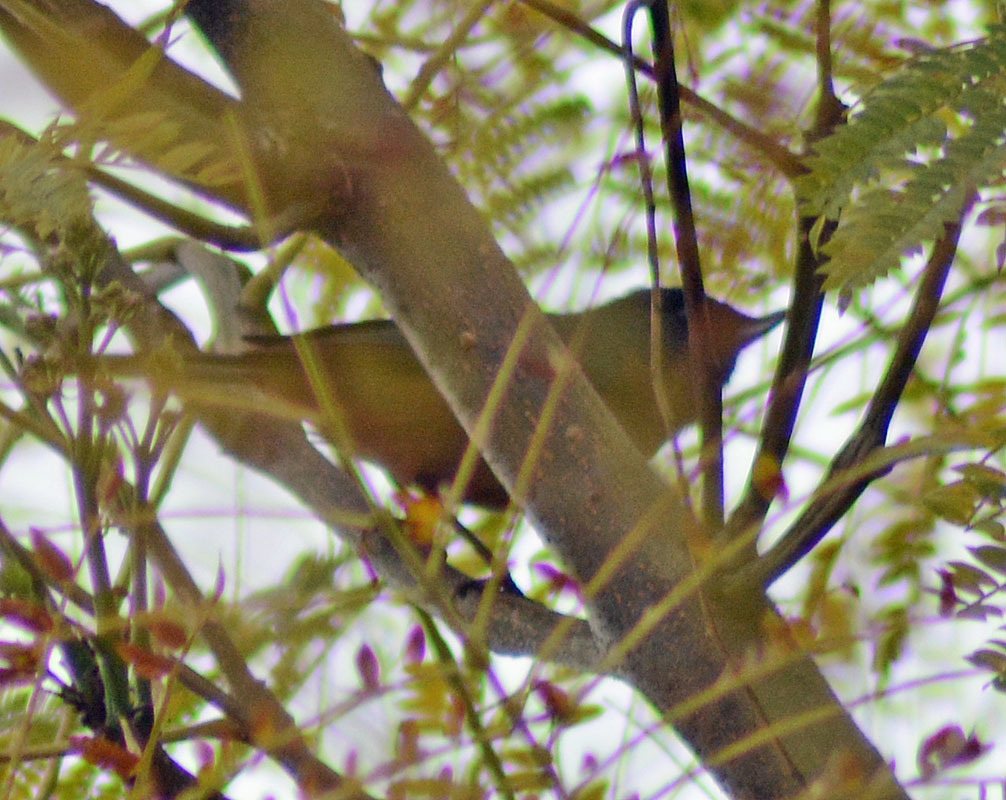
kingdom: Animalia
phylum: Chordata
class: Aves
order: Passeriformes
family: Thraupidae
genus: Diglossa
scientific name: Diglossa baritula
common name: Cinnamon-bellied flowerpiercer
